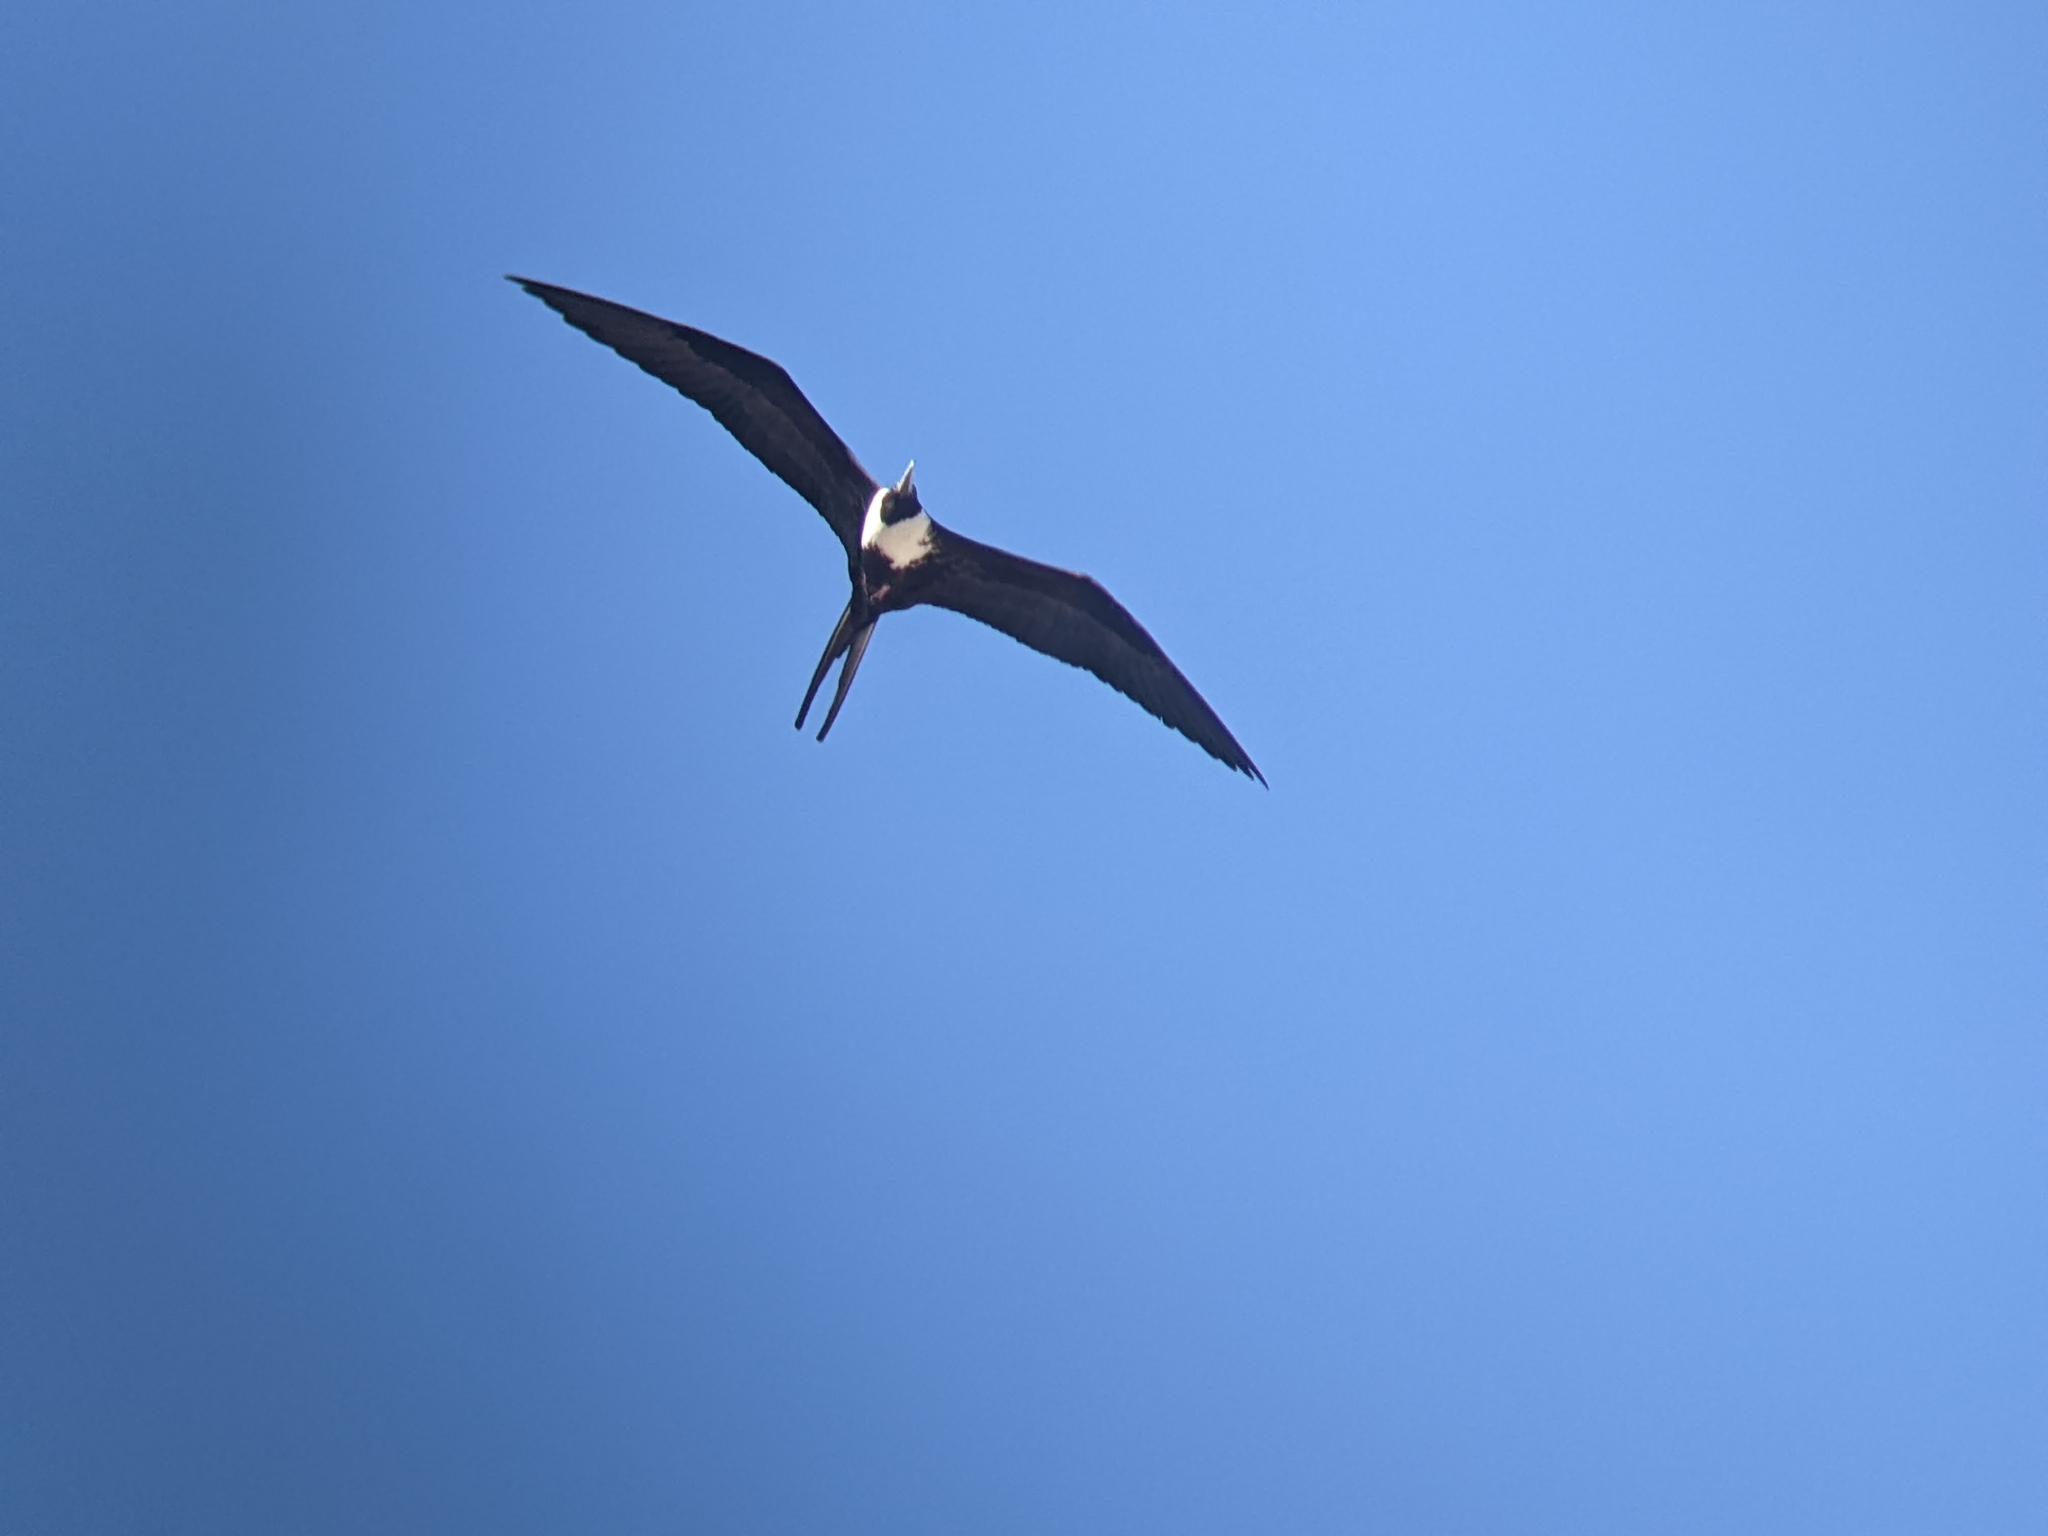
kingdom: Animalia
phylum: Chordata
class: Aves
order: Suliformes
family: Fregatidae
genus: Fregata
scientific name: Fregata magnificens
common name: Magnificent frigatebird
